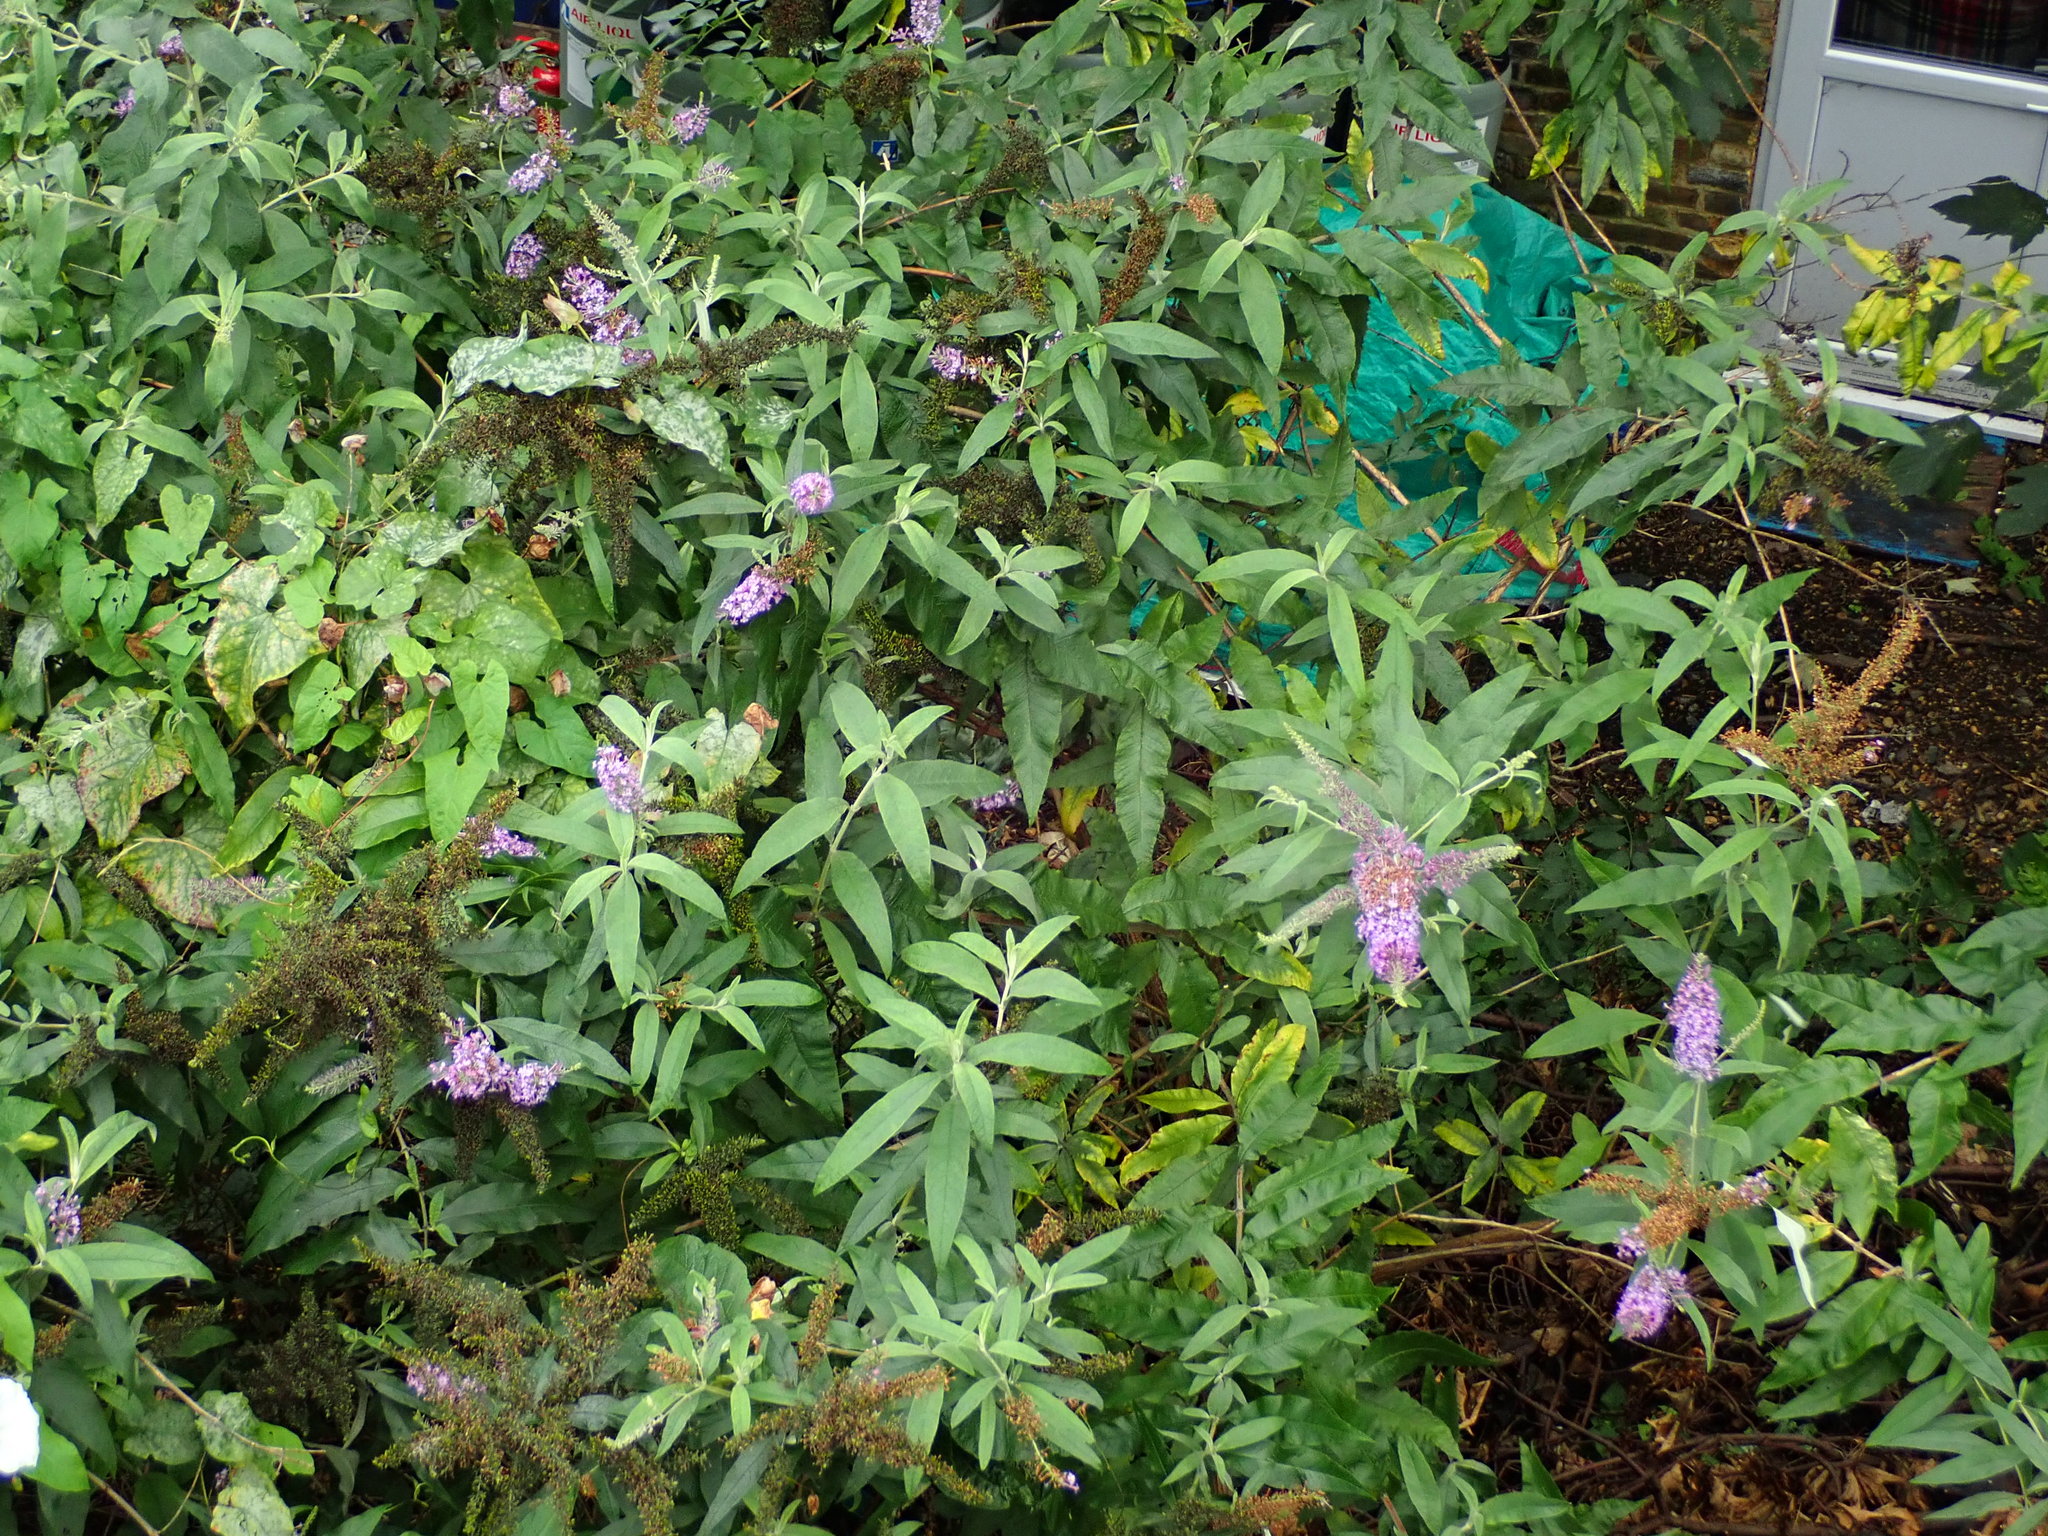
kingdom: Plantae
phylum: Tracheophyta
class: Magnoliopsida
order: Lamiales
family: Scrophulariaceae
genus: Buddleja
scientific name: Buddleja davidii
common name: Butterfly-bush
